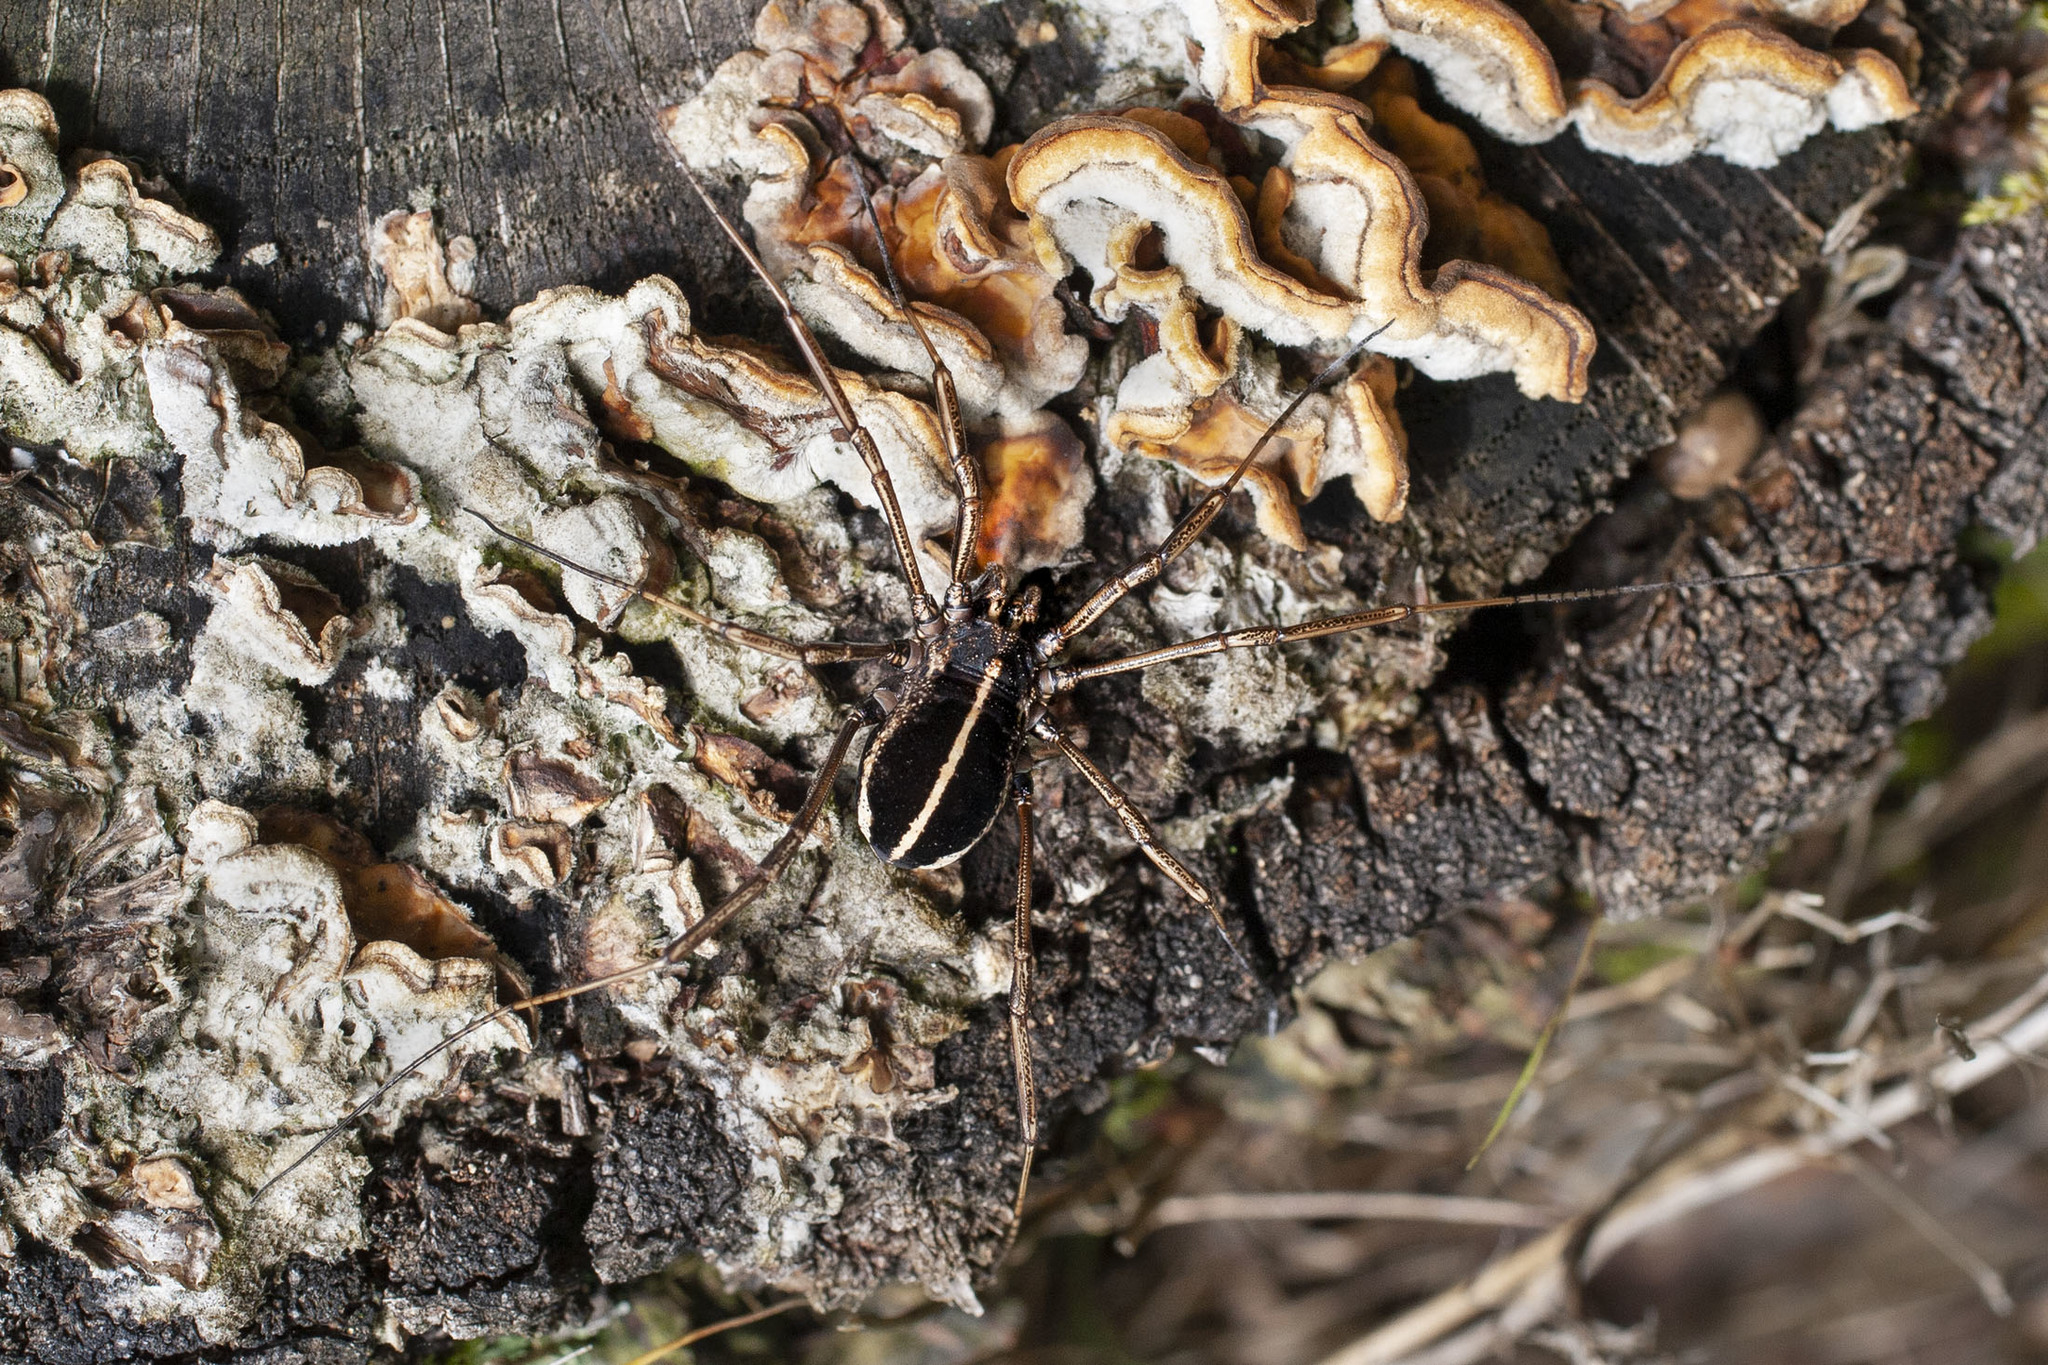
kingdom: Animalia
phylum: Arthropoda
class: Arachnida
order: Opiliones
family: Phalangiidae
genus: Zachaeus
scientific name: Zachaeus crista
